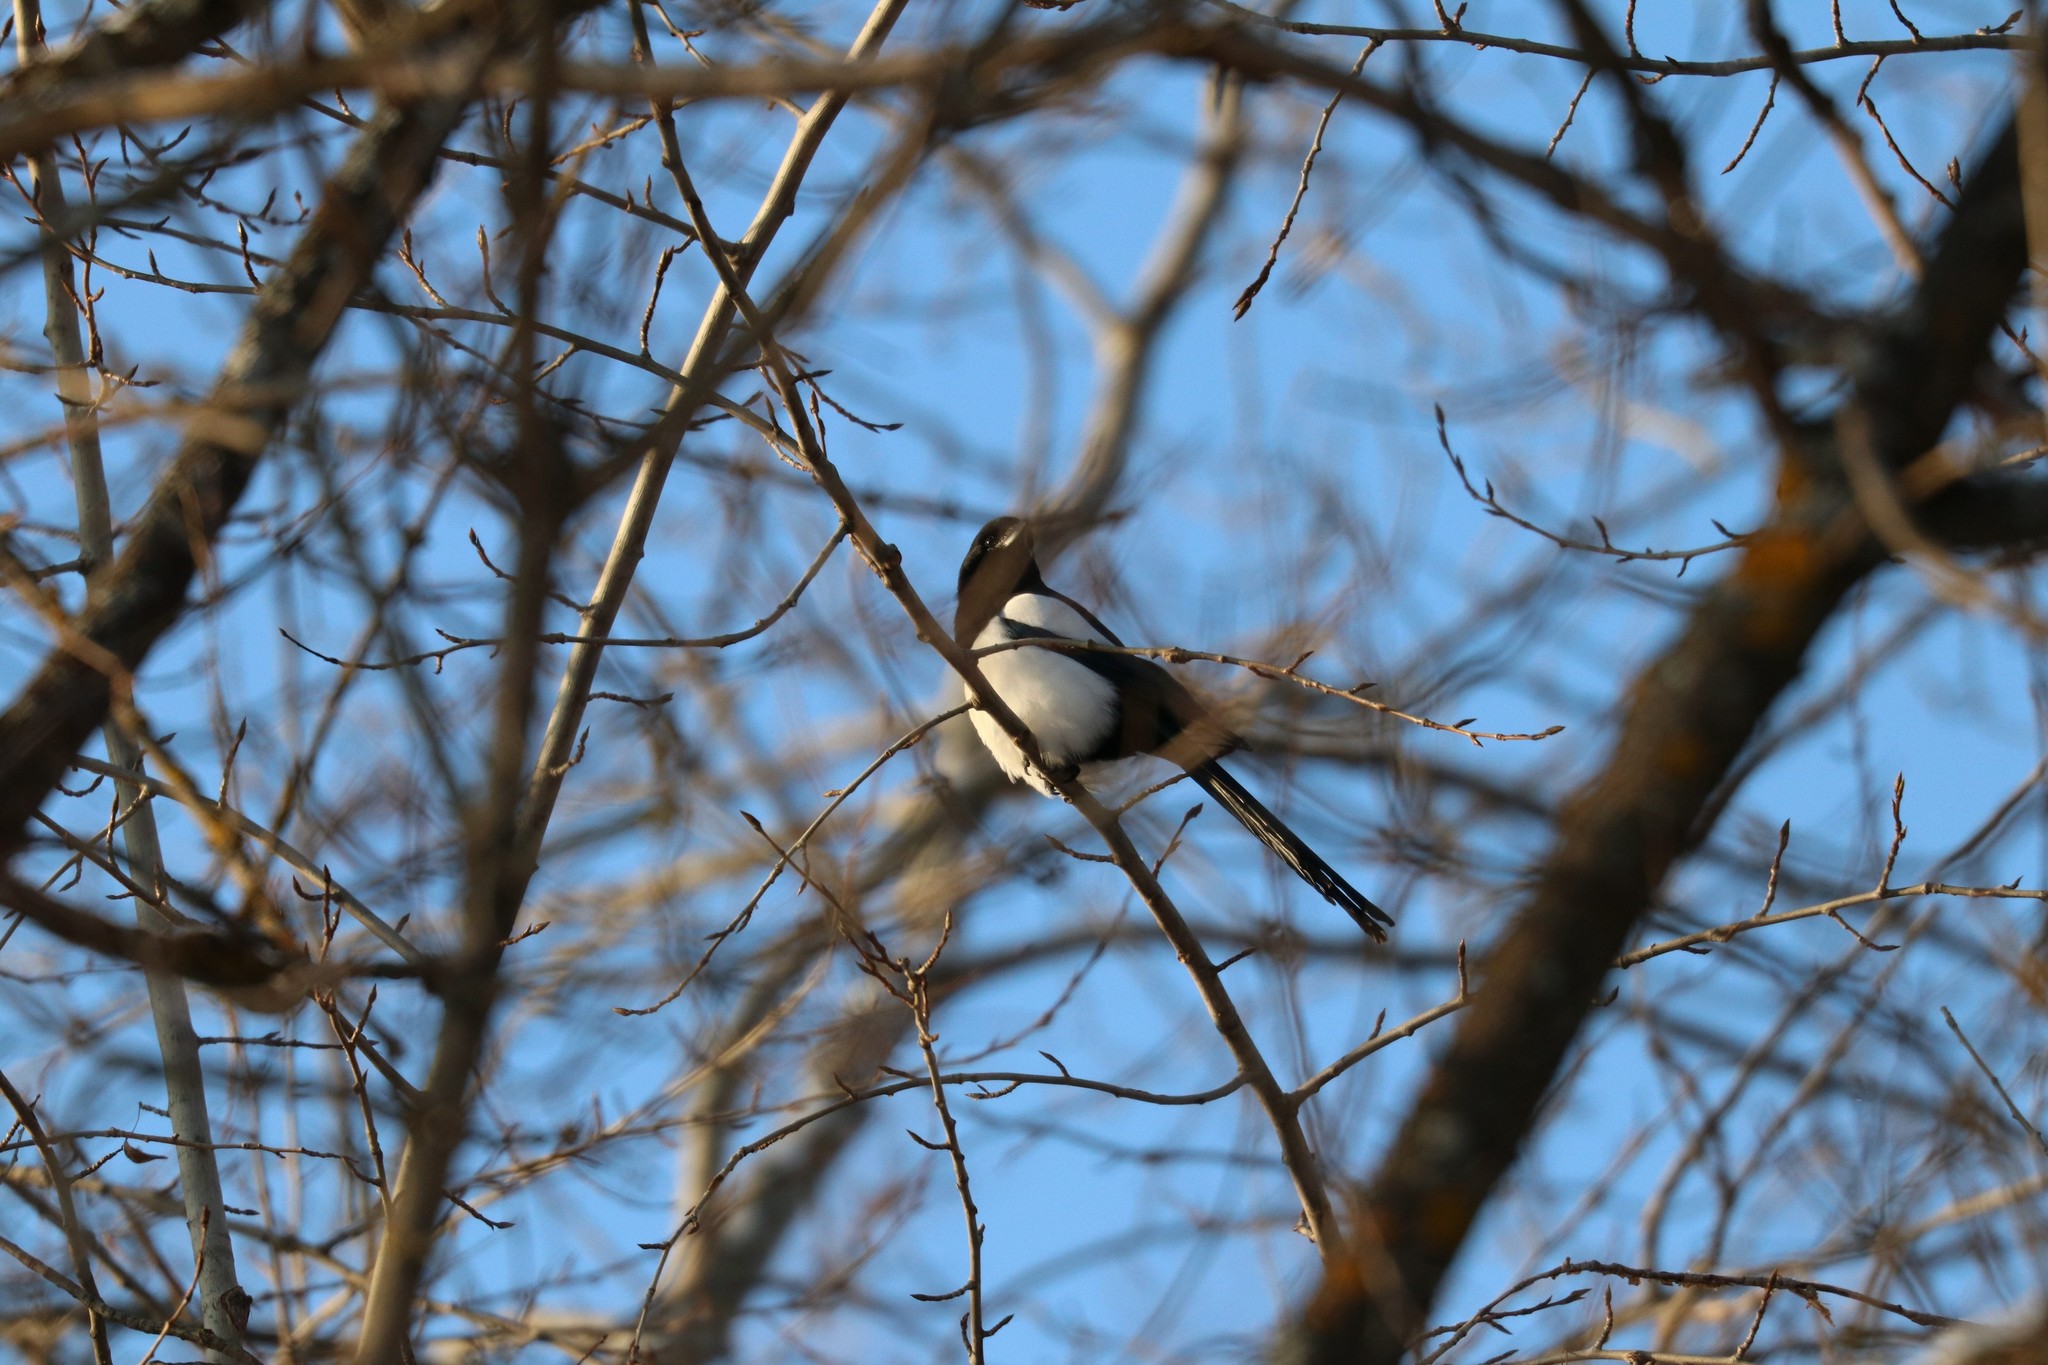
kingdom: Animalia
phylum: Chordata
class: Aves
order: Passeriformes
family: Corvidae
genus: Pica
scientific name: Pica pica
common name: Eurasian magpie
